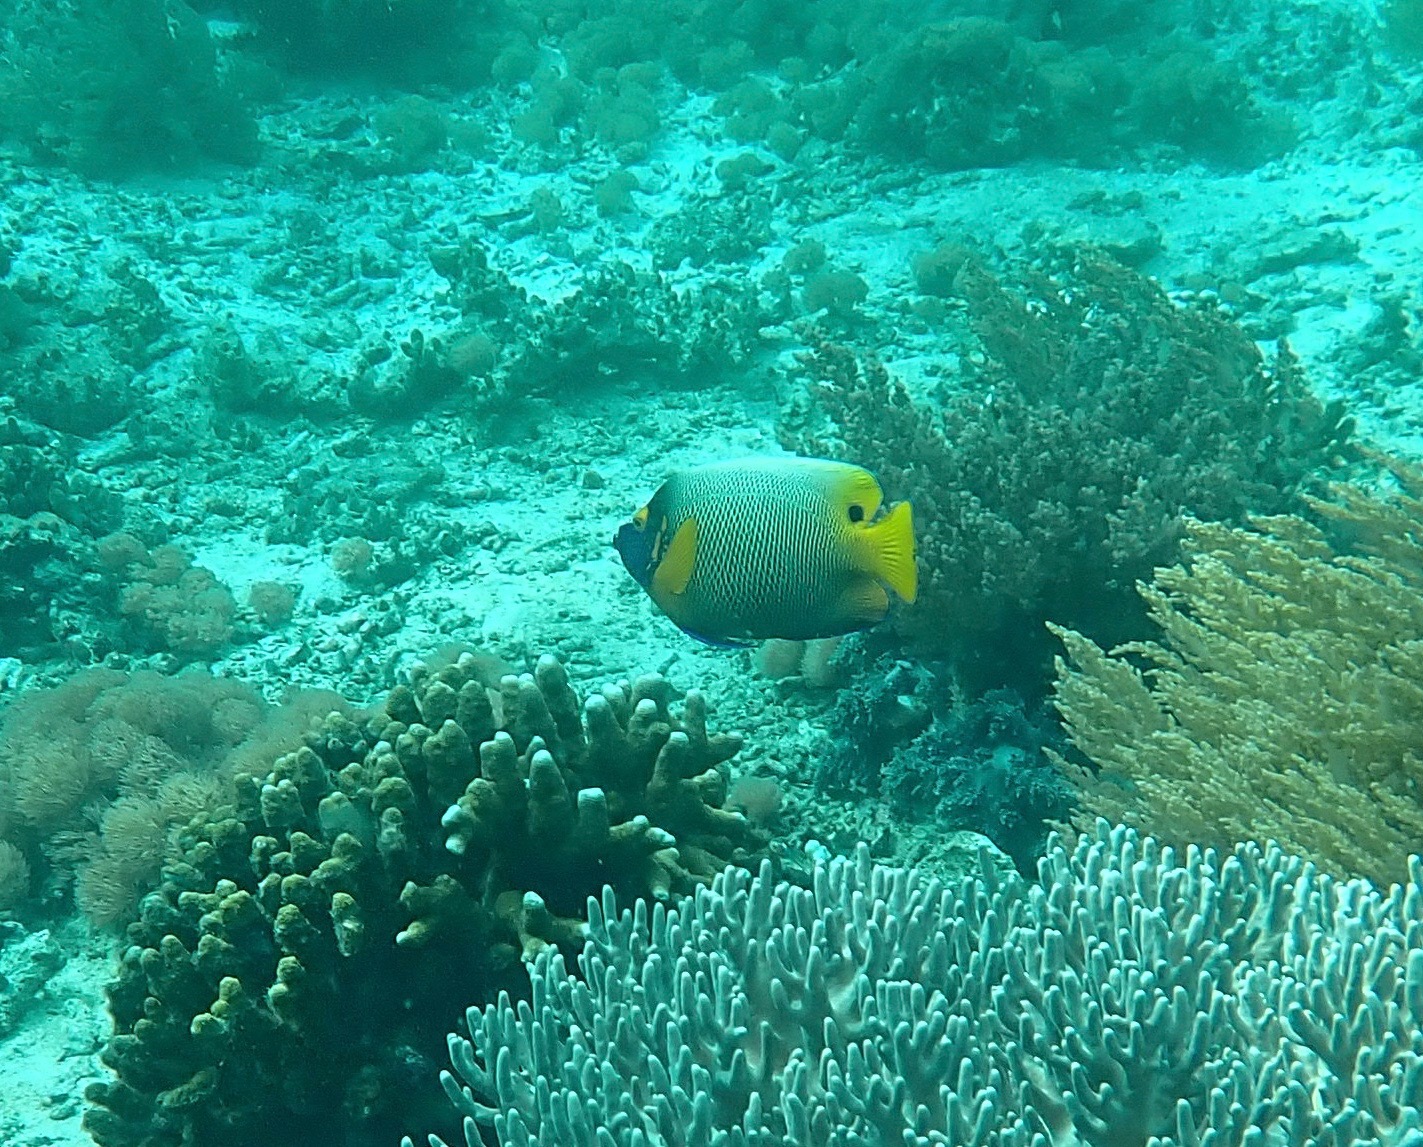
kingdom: Animalia
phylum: Chordata
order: Perciformes
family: Pomacanthidae
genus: Pomacanthus
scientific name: Pomacanthus xanthometopon
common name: Yellow-faced angelfish
